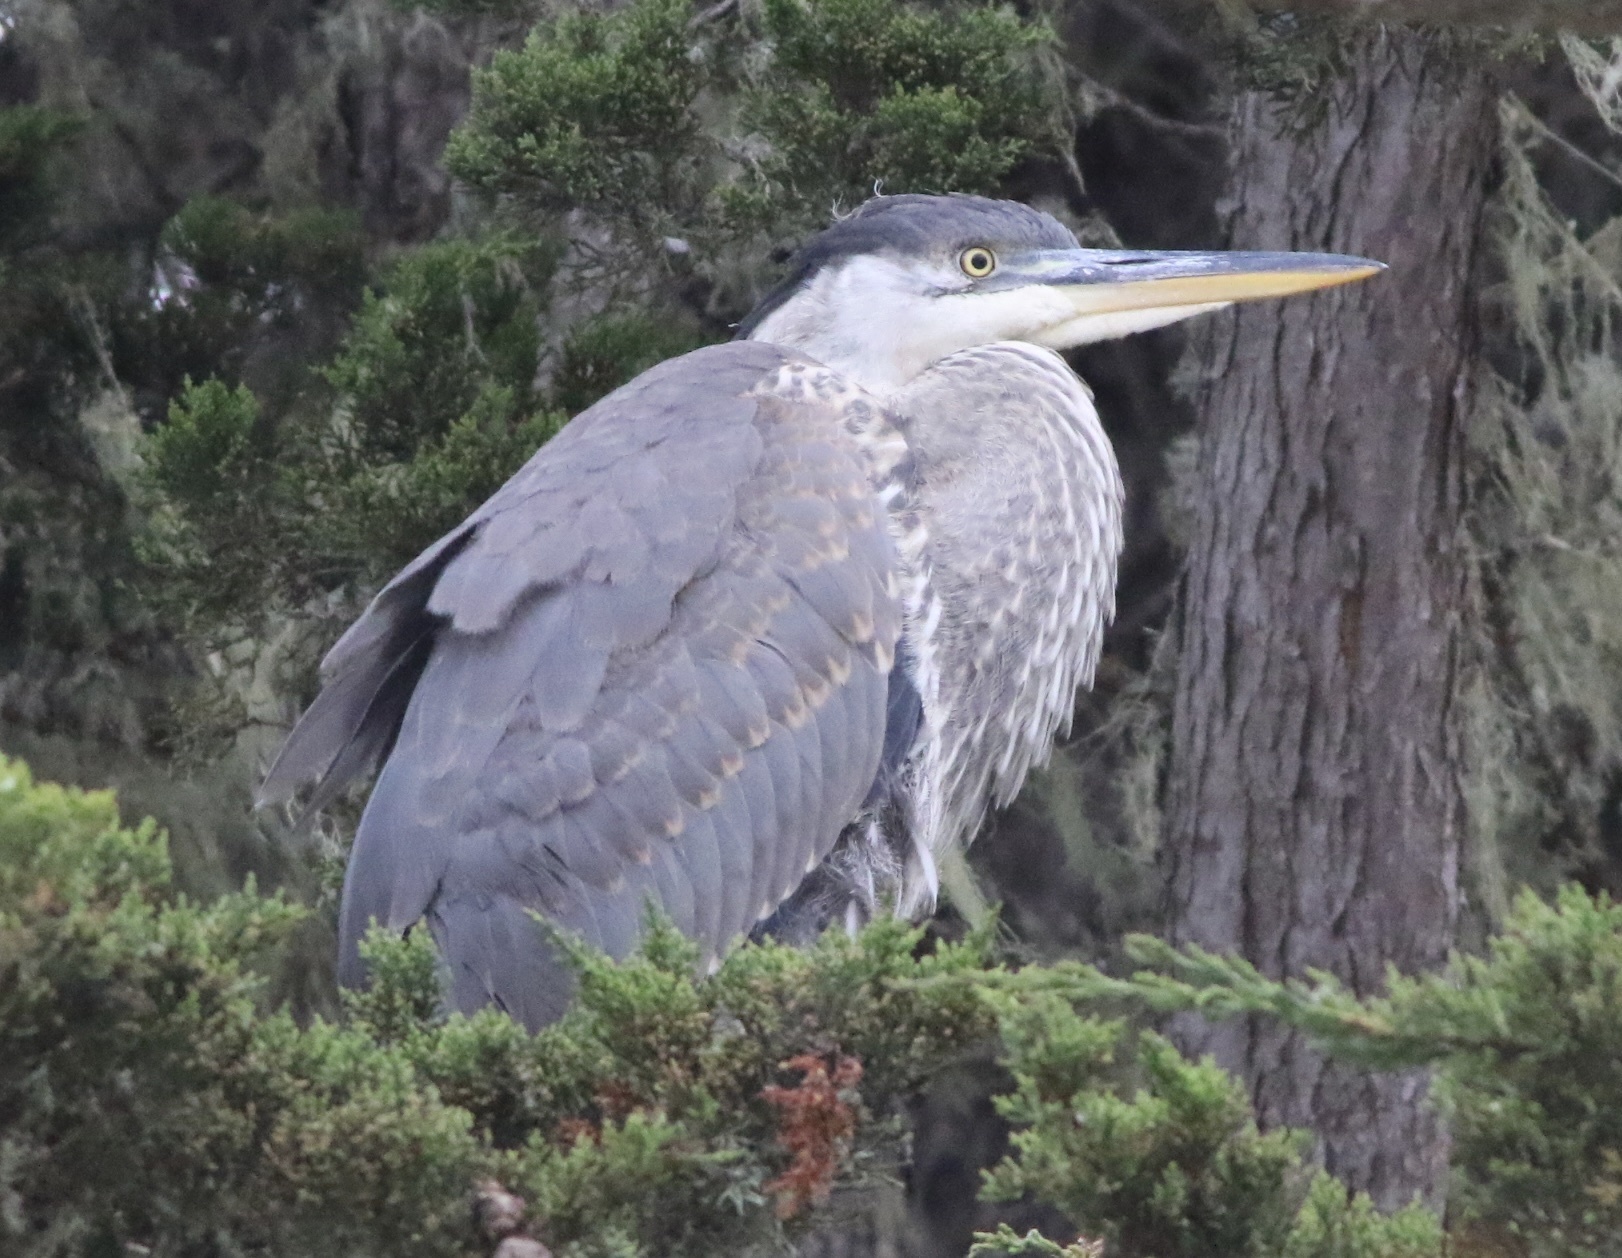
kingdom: Animalia
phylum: Chordata
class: Aves
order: Pelecaniformes
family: Ardeidae
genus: Ardea
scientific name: Ardea herodias
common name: Great blue heron
